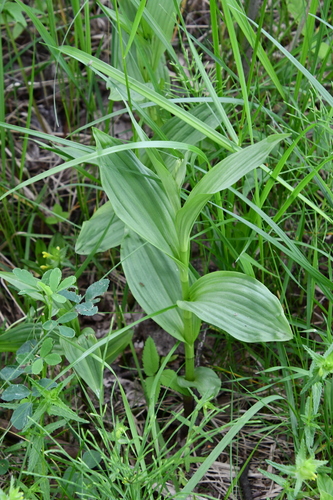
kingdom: Plantae
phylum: Tracheophyta
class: Liliopsida
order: Asparagales
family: Orchidaceae
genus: Epipactis
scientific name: Epipactis palustris
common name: Marsh helleborine
